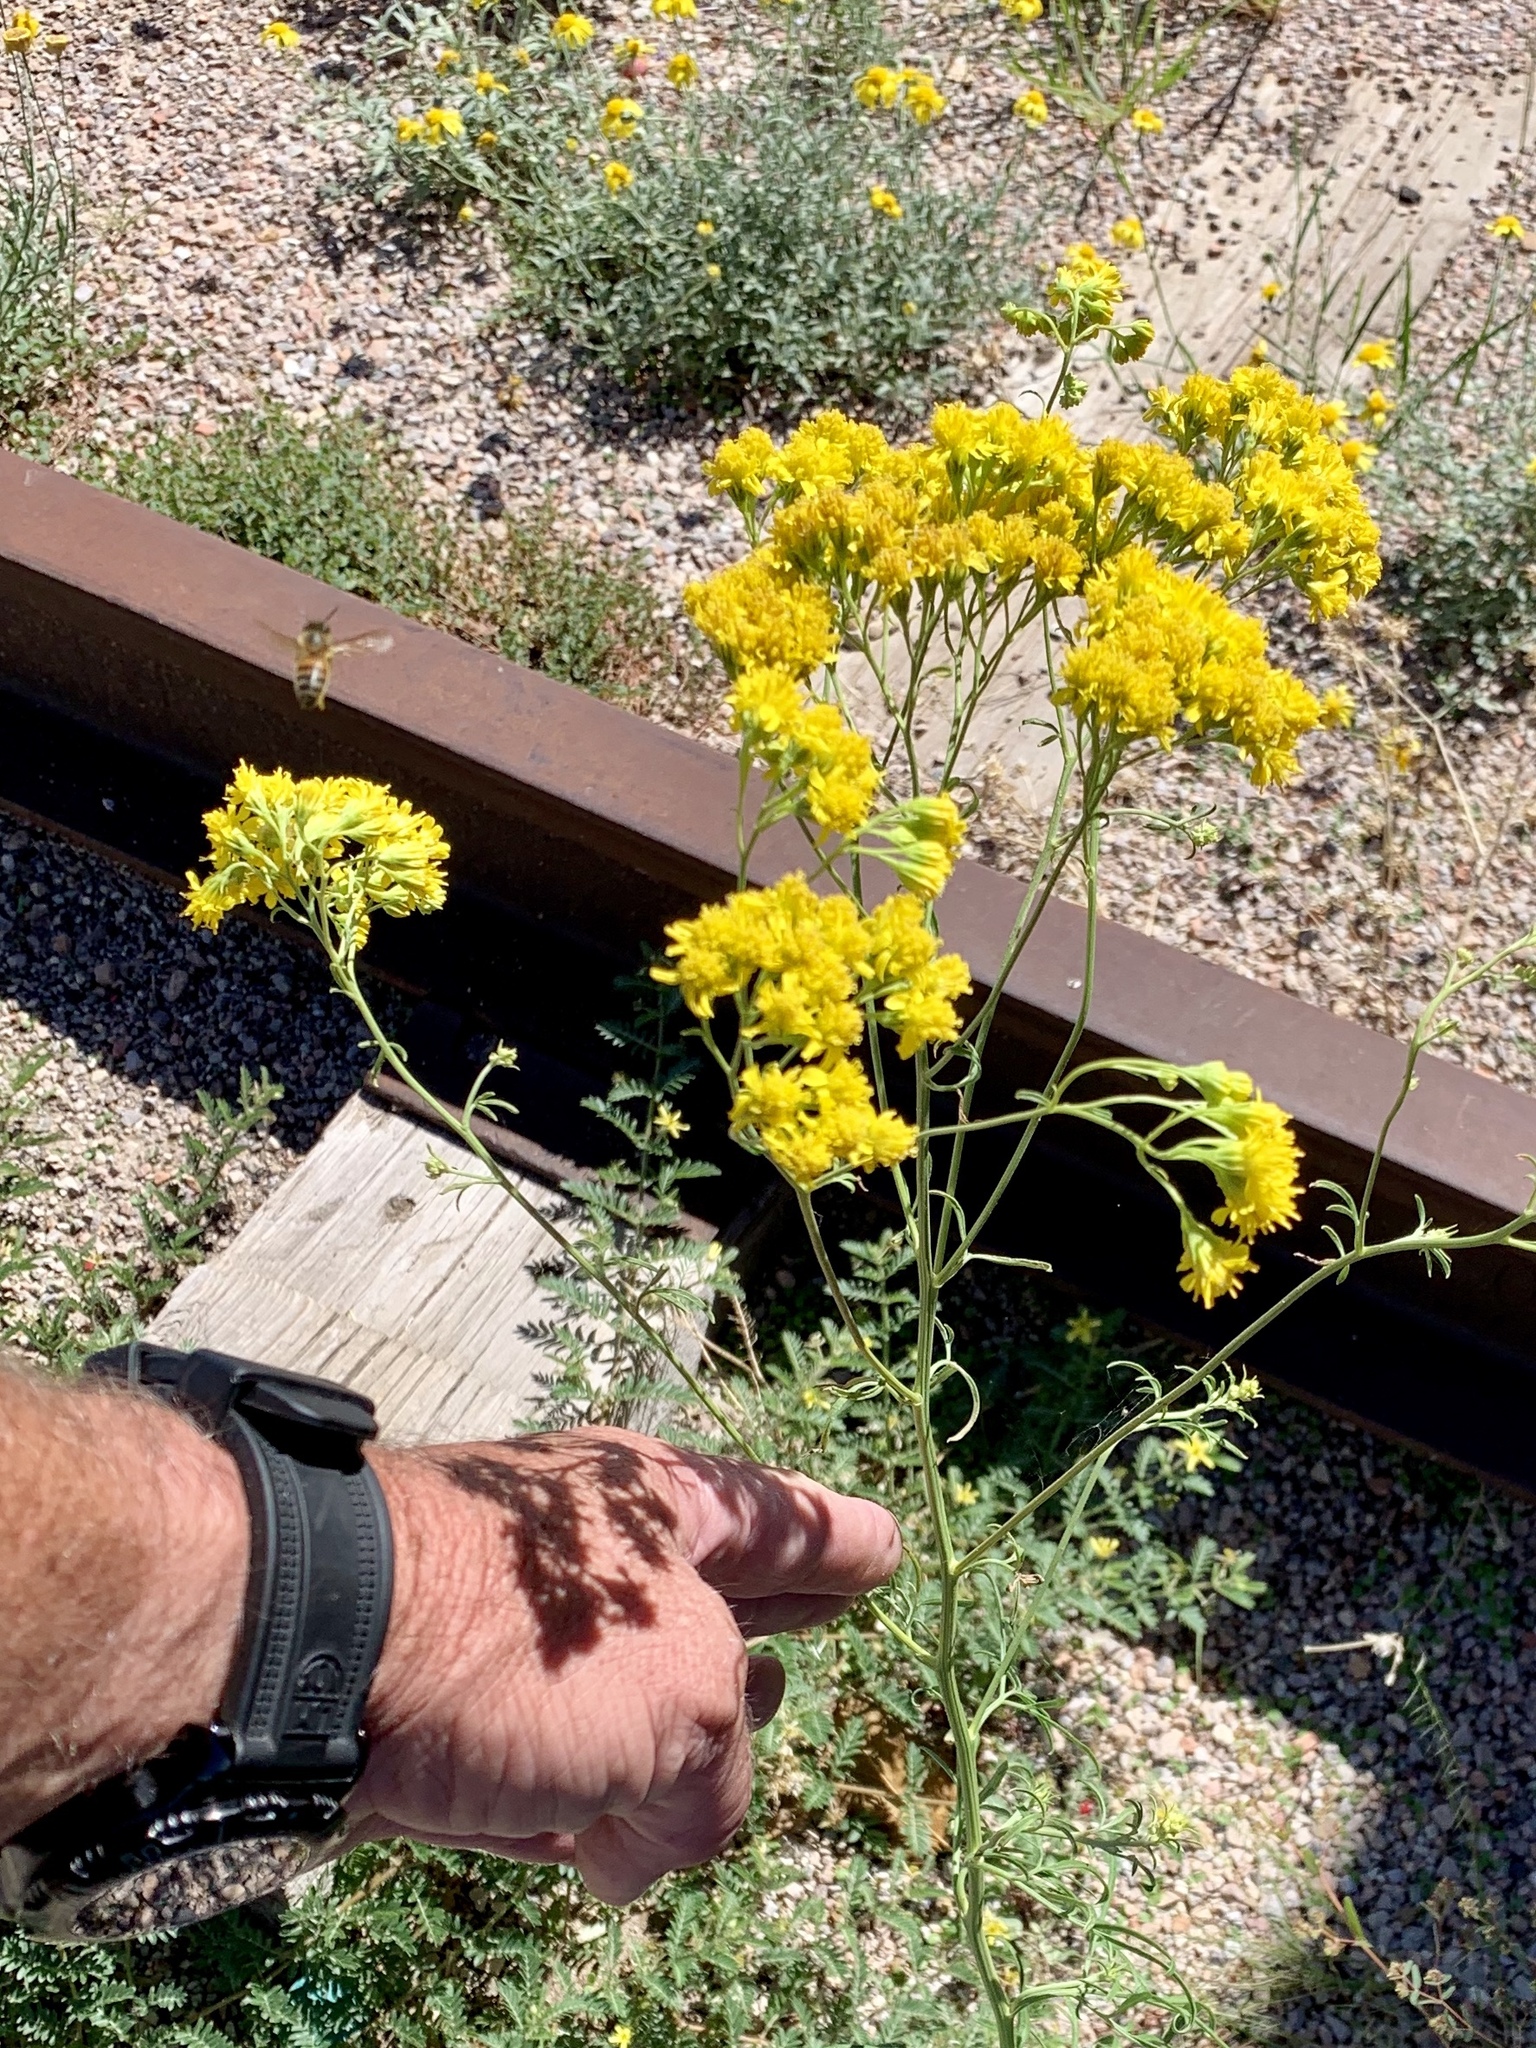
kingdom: Plantae
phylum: Tracheophyta
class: Magnoliopsida
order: Asterales
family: Asteraceae
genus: Hymenothrix
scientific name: Hymenothrix wislizeni
